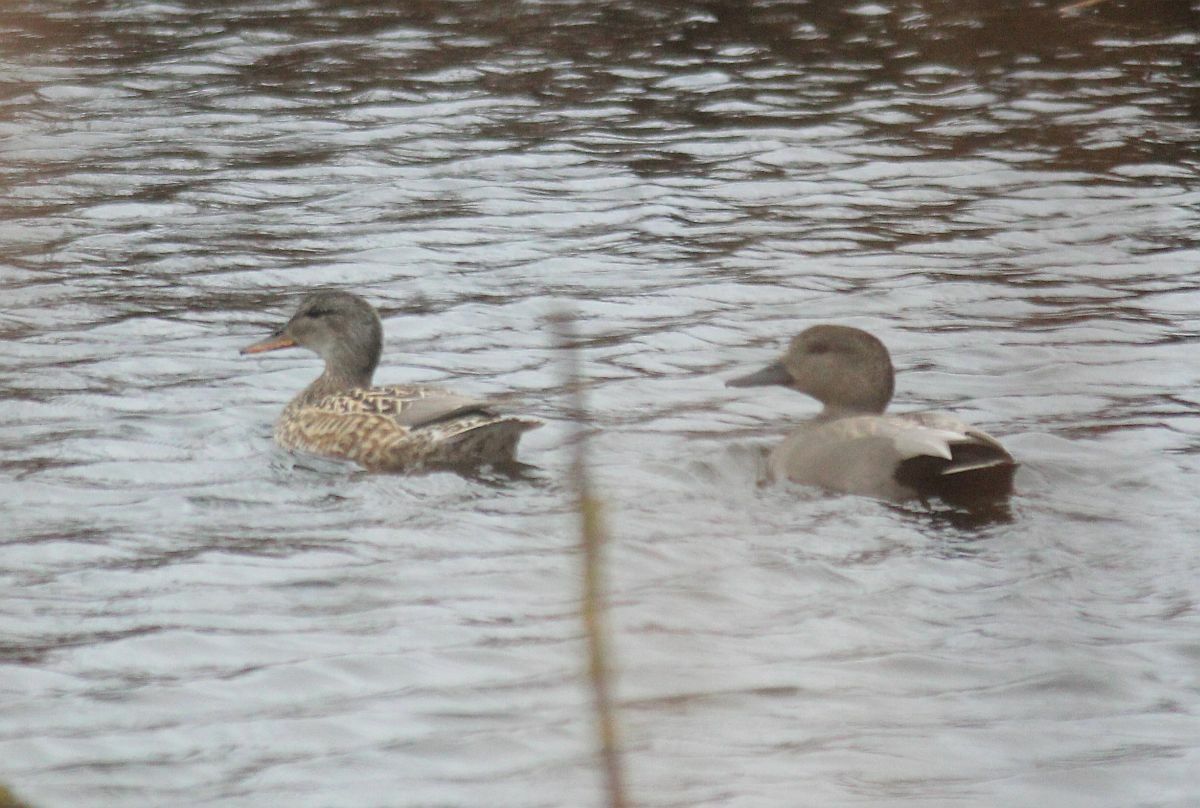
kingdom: Animalia
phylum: Chordata
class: Aves
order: Anseriformes
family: Anatidae
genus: Mareca
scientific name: Mareca strepera
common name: Gadwall
